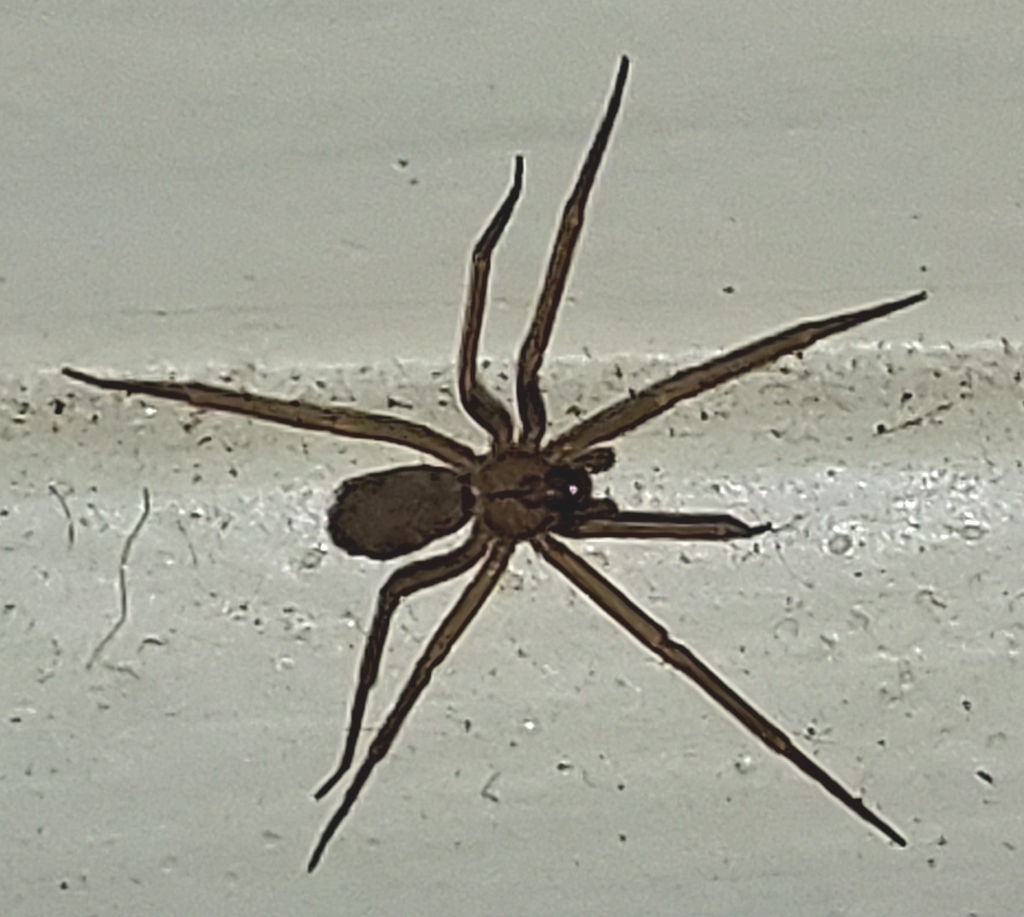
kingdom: Animalia
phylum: Arthropoda
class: Arachnida
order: Araneae
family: Sicariidae
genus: Loxosceles
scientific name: Loxosceles reclusa
